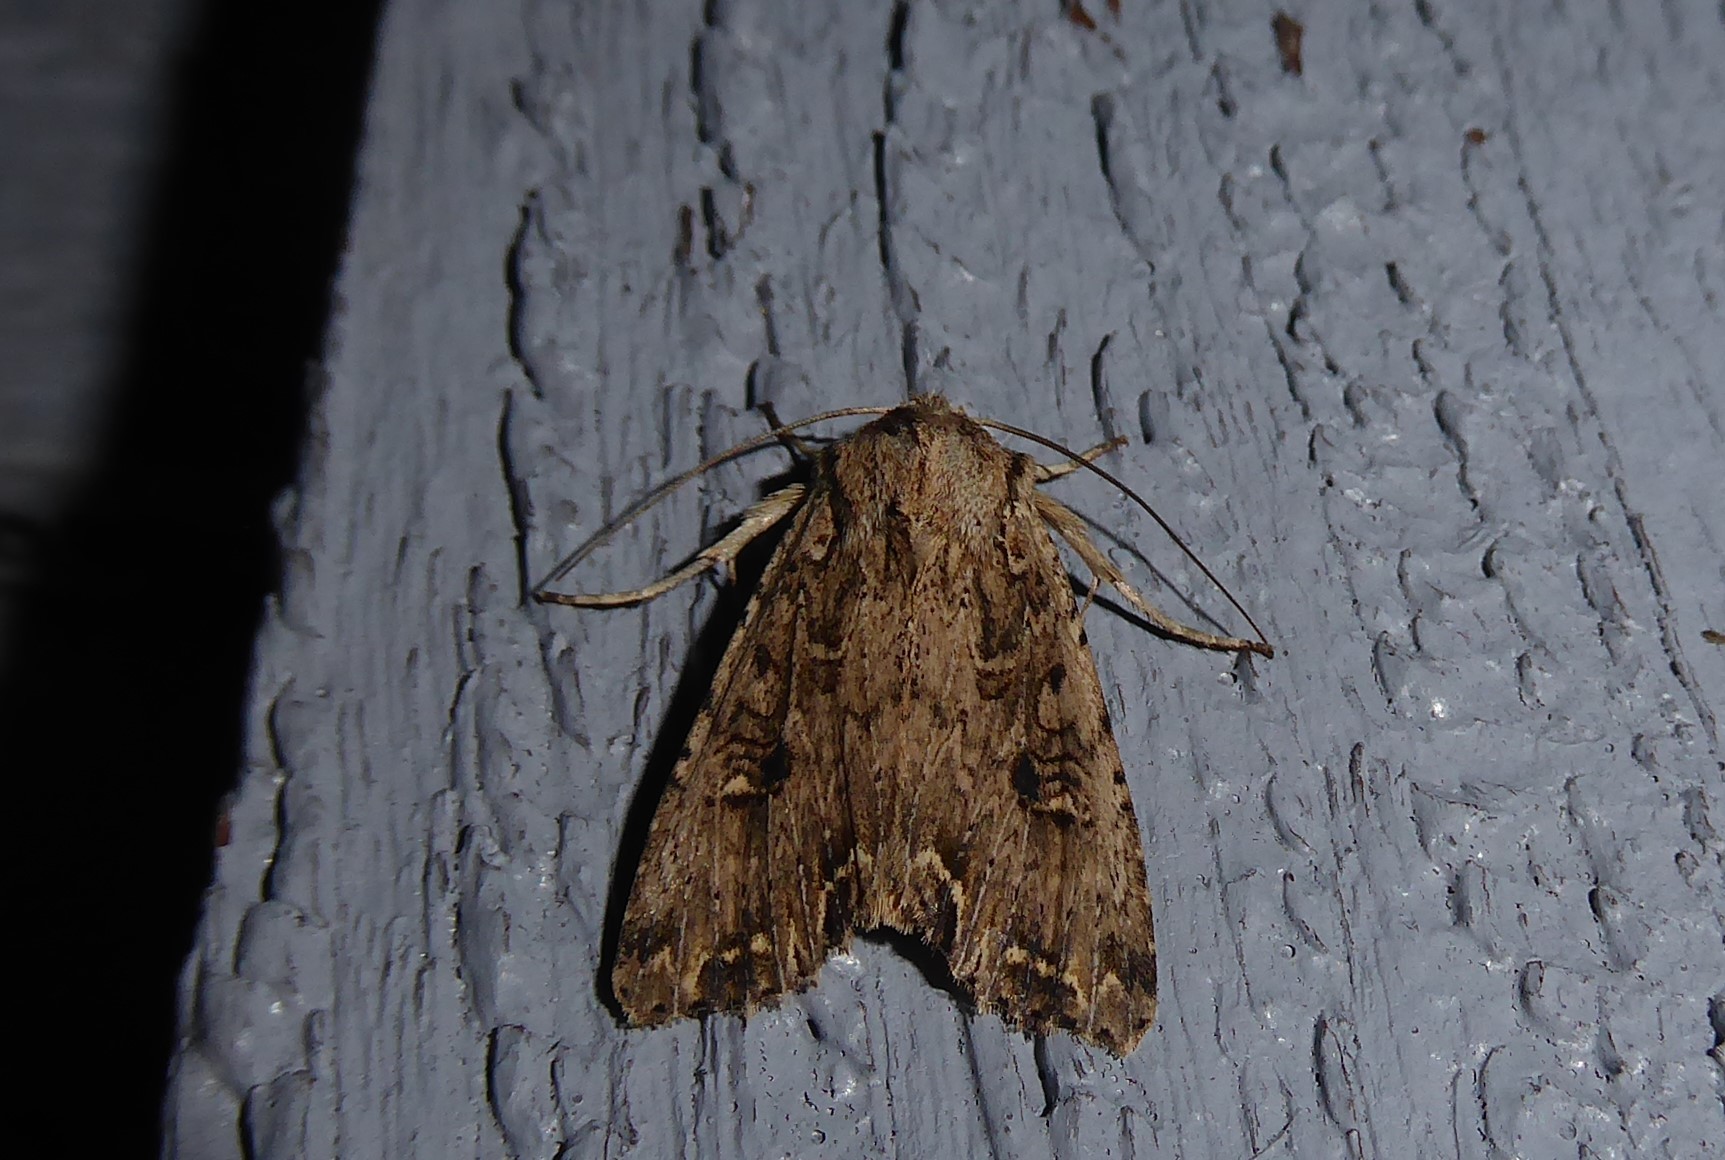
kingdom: Animalia
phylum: Arthropoda
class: Insecta
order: Lepidoptera
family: Noctuidae
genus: Ichneutica
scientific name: Ichneutica lignana
